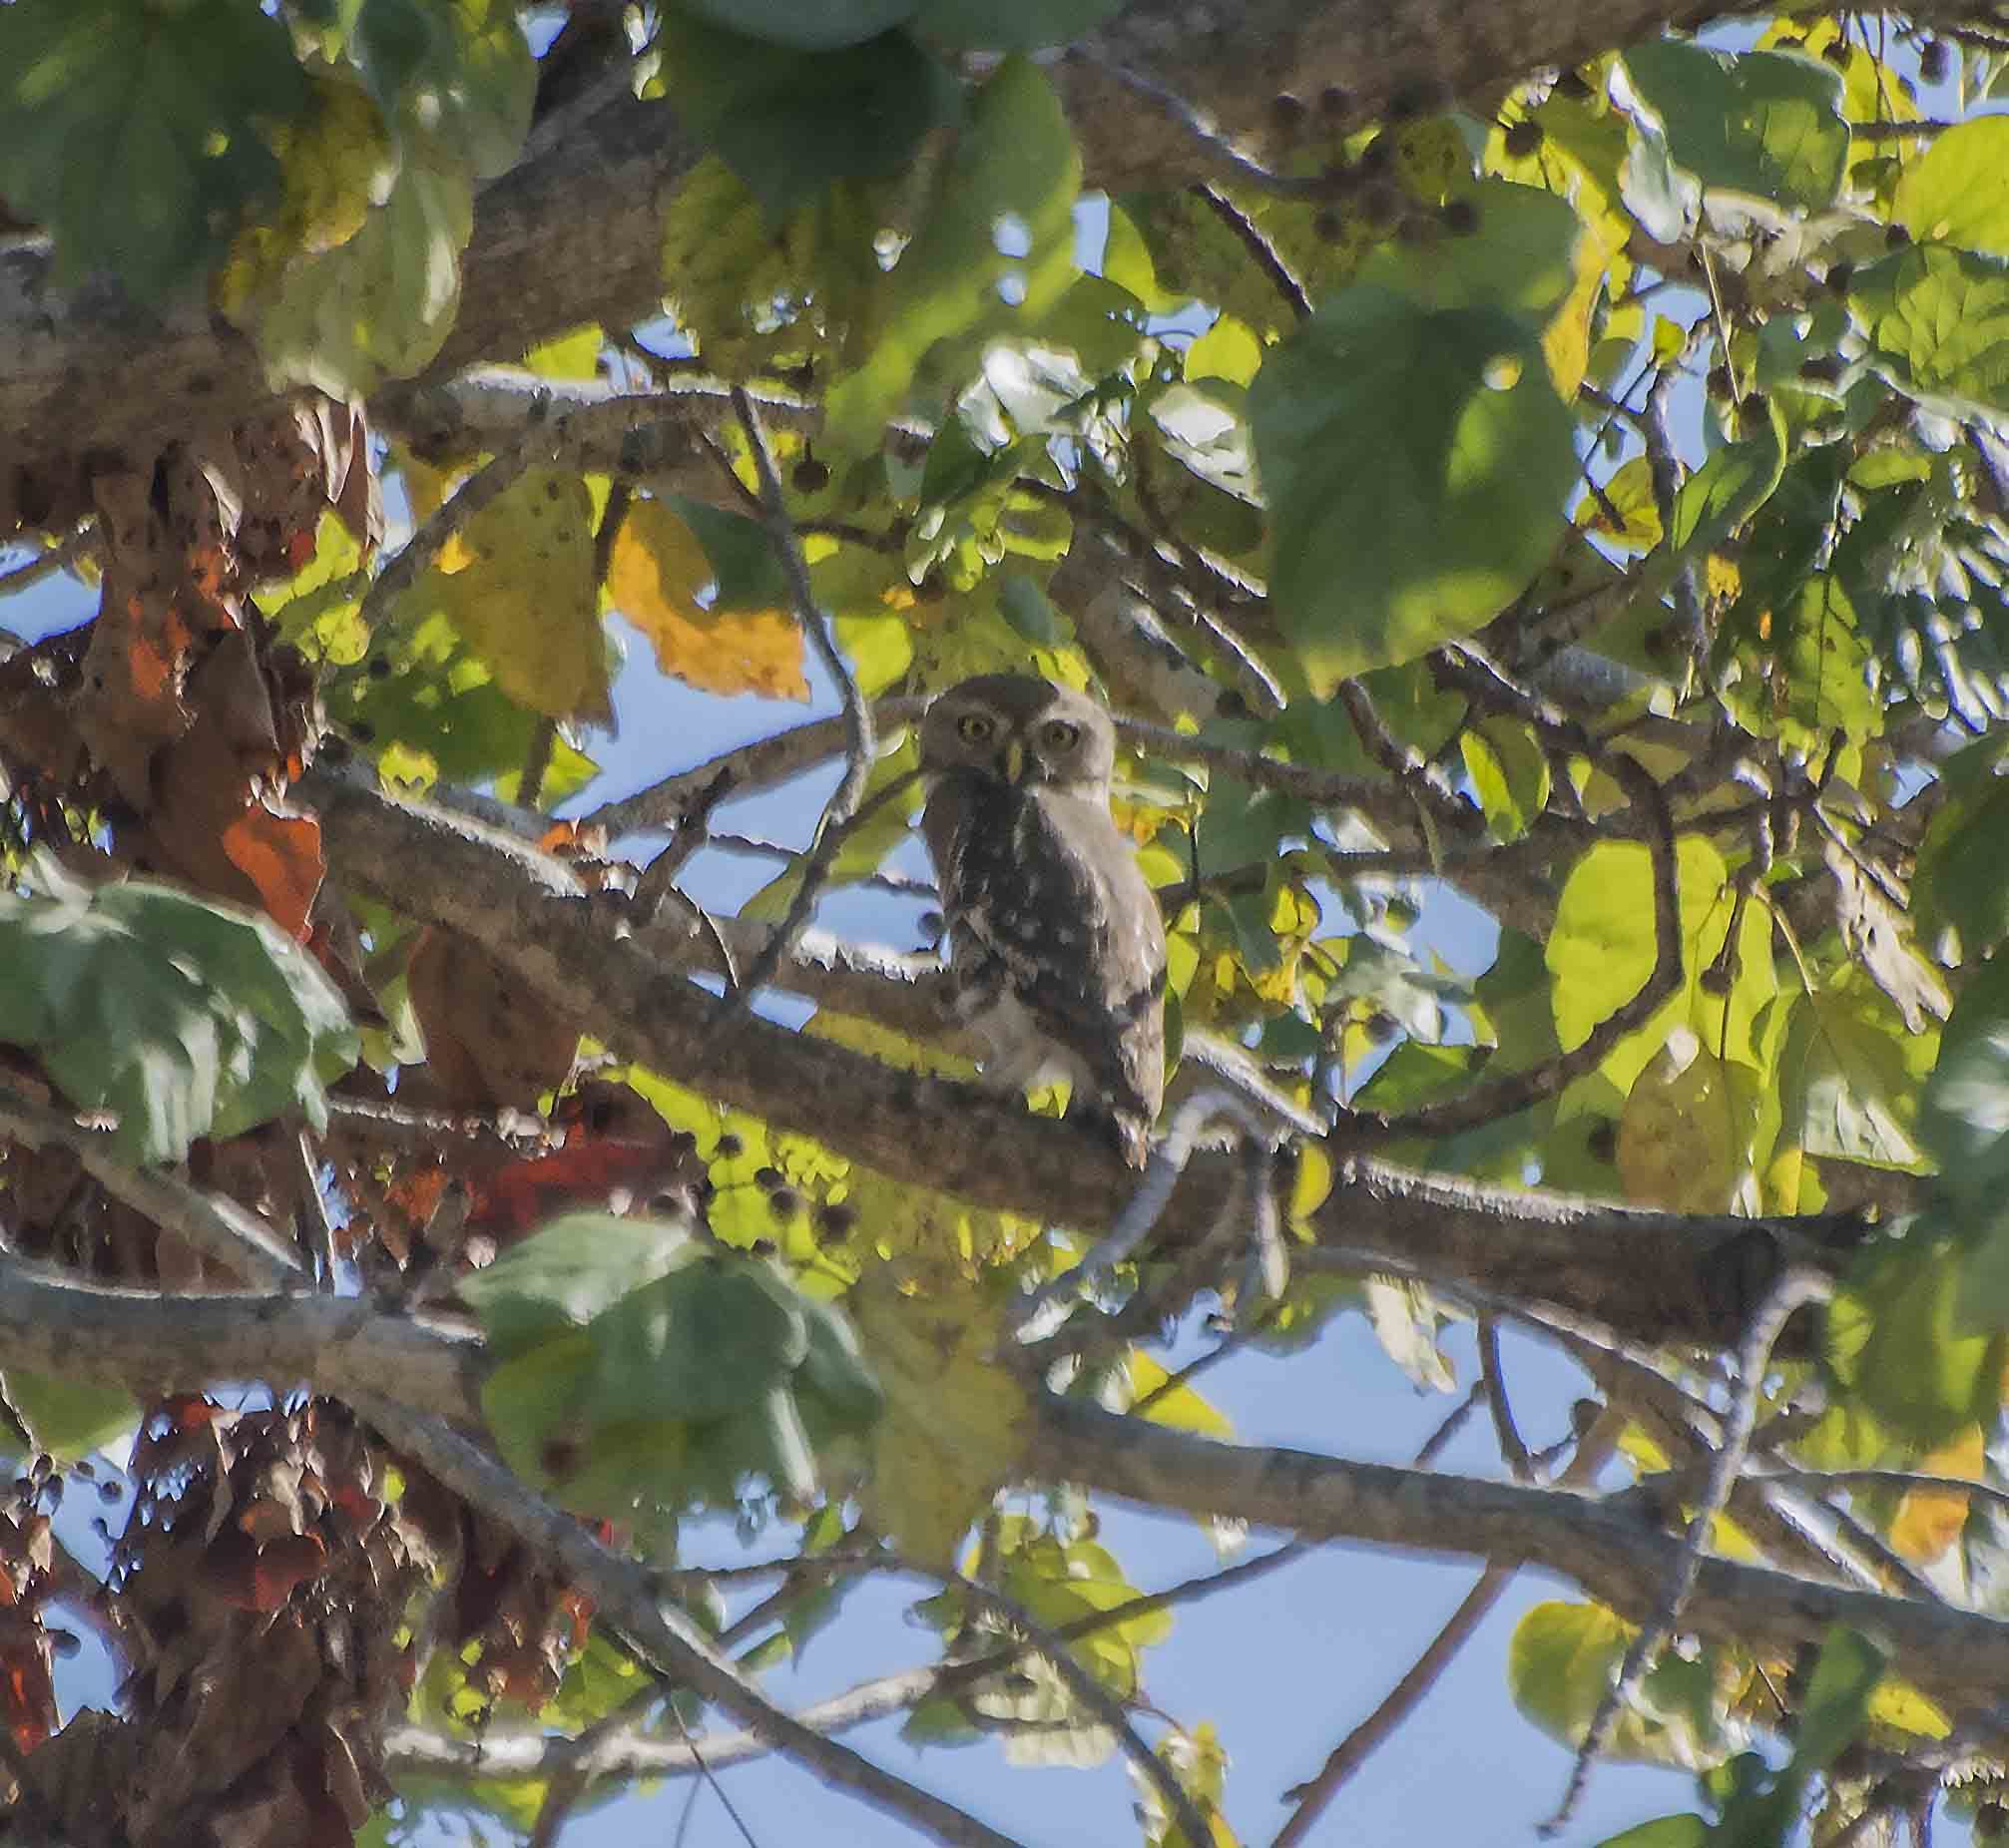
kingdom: Animalia
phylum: Chordata
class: Aves
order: Strigiformes
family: Strigidae
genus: Heteroglaux
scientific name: Heteroglaux blewitti
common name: Forest owlet
